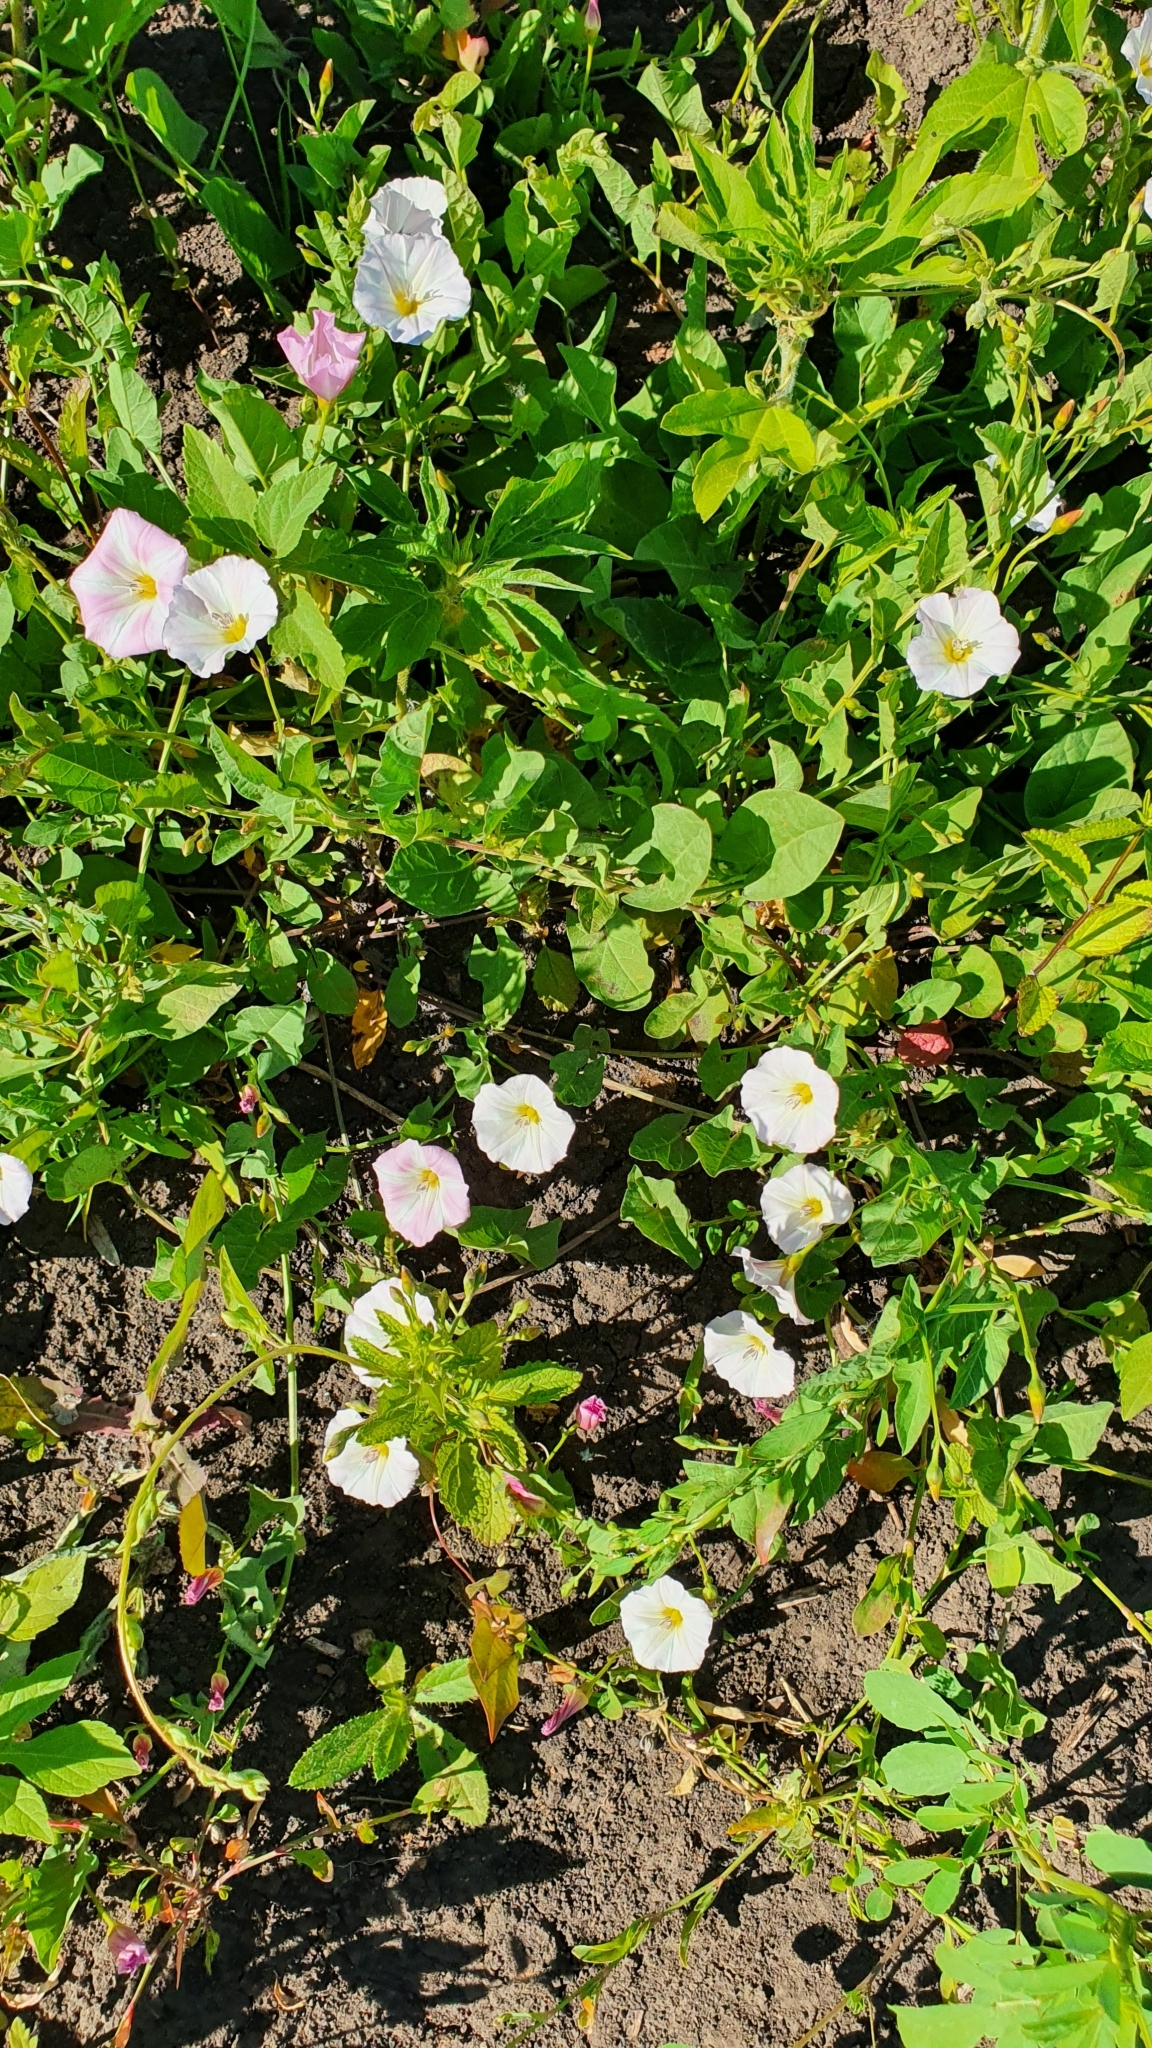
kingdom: Plantae
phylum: Tracheophyta
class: Magnoliopsida
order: Solanales
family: Convolvulaceae
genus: Convolvulus
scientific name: Convolvulus arvensis
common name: Field bindweed
